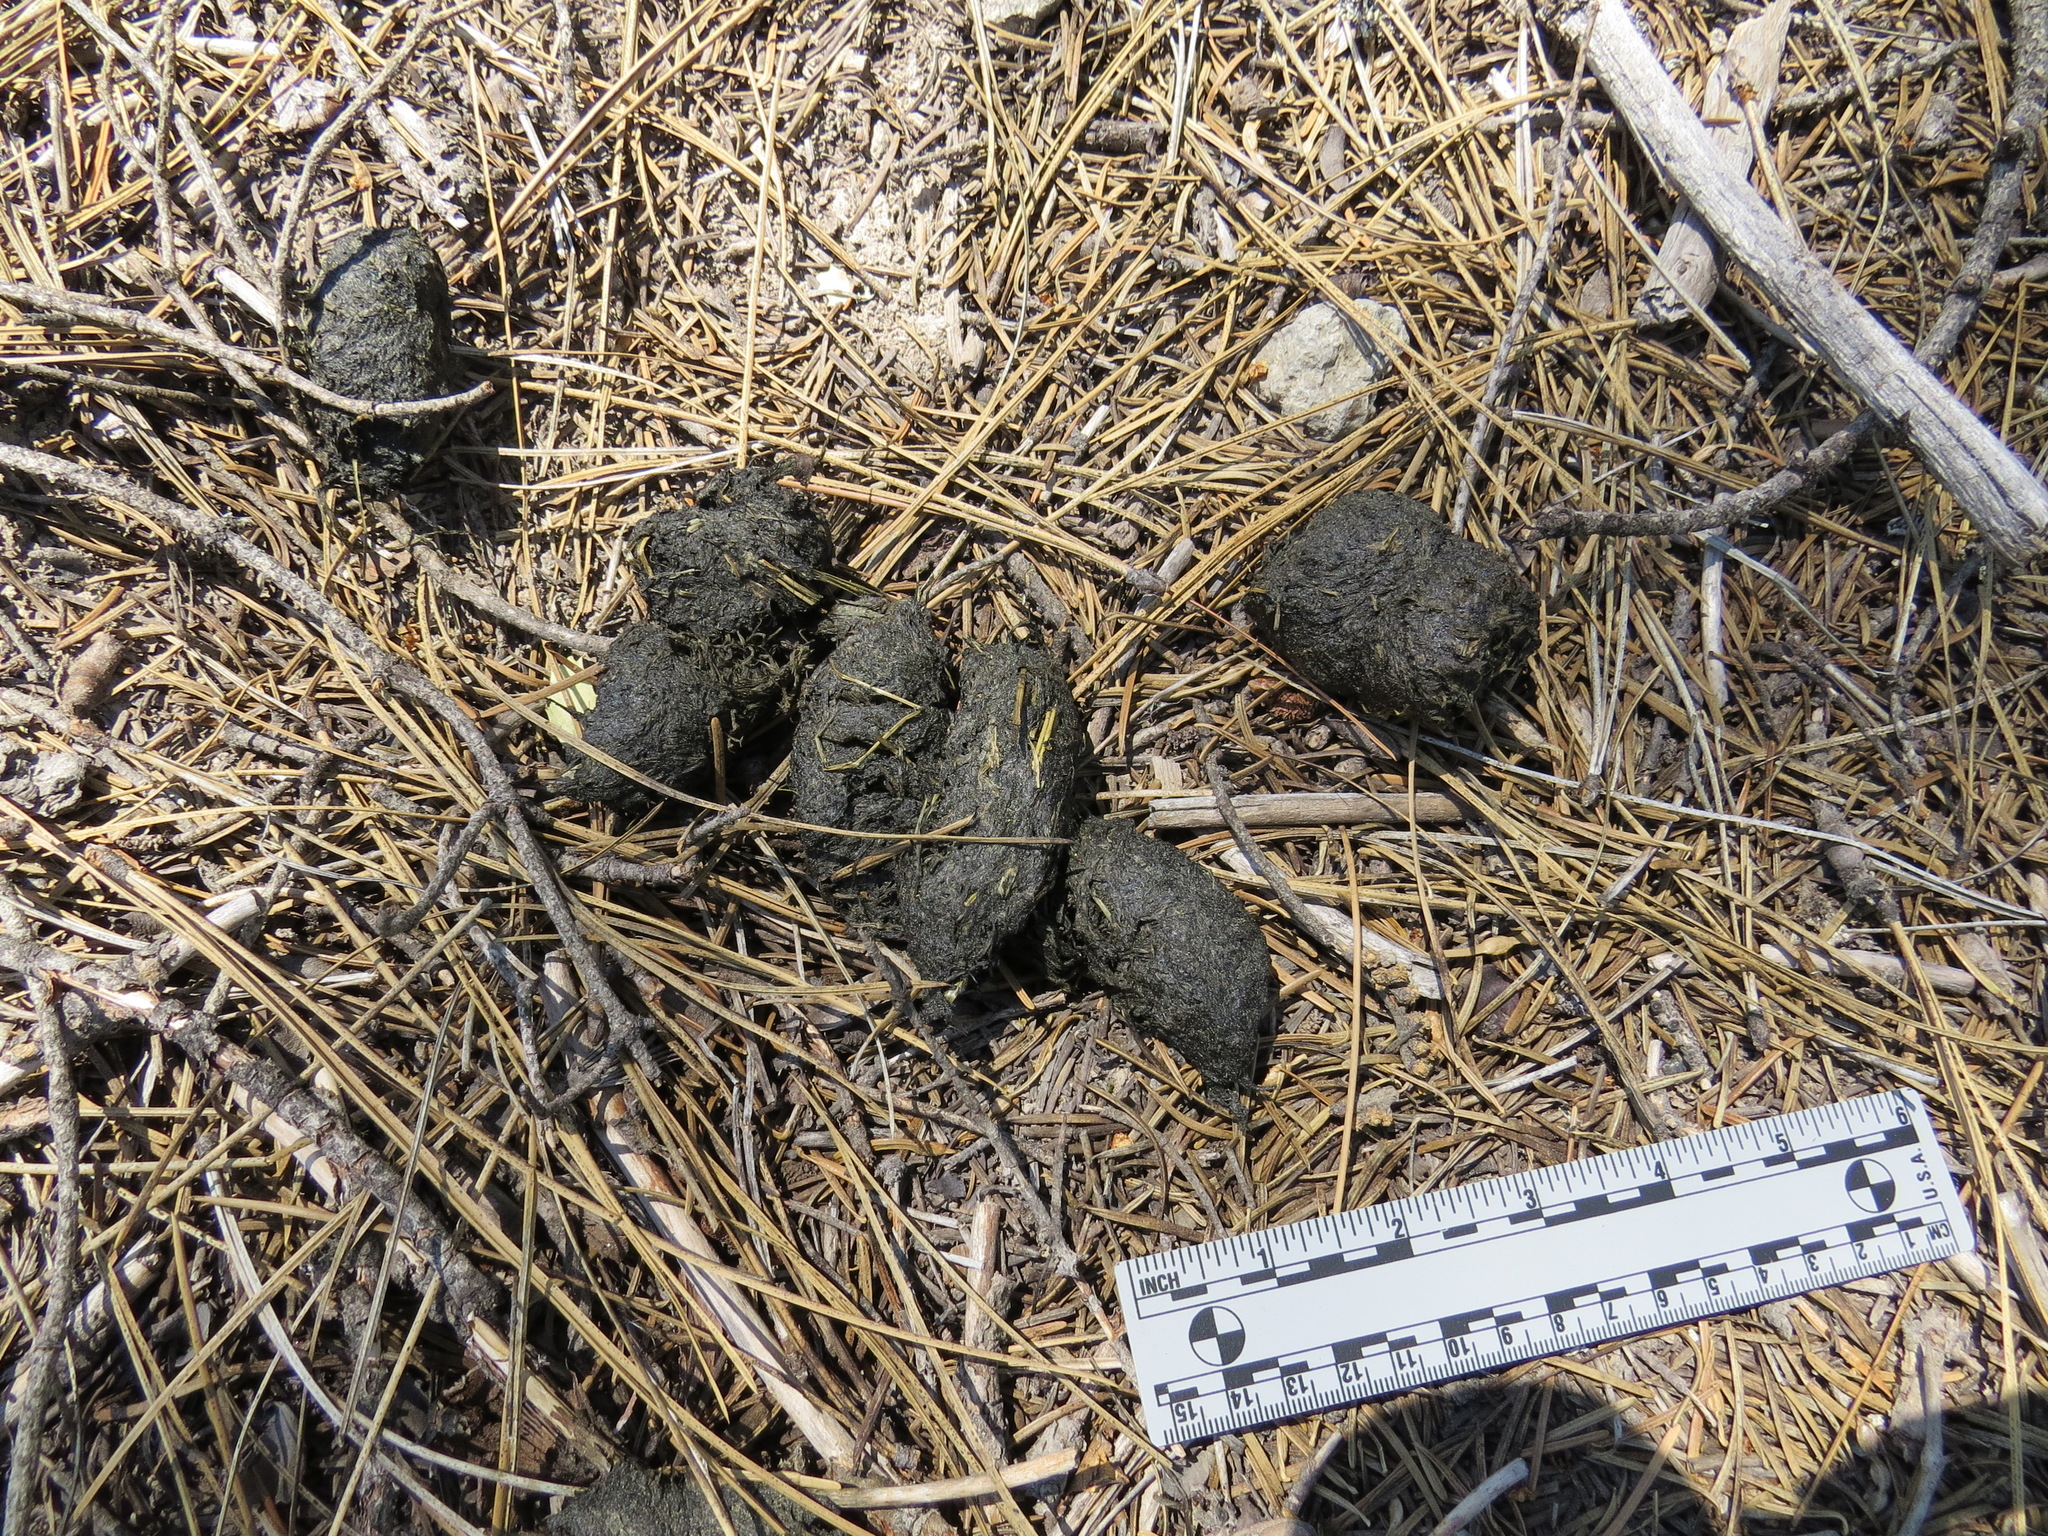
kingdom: Animalia
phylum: Chordata
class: Mammalia
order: Carnivora
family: Ursidae
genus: Ursus
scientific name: Ursus americanus
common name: American black bear
